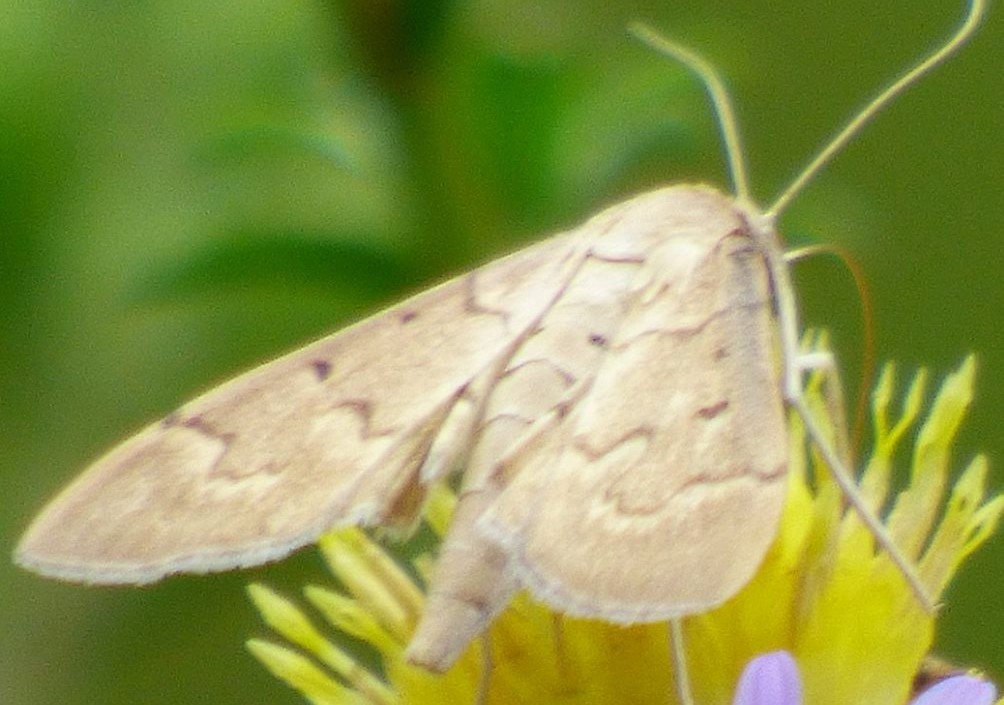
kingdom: Animalia
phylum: Arthropoda
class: Insecta
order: Lepidoptera
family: Crambidae
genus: Herpetogramma
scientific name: Herpetogramma bipunctalis
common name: Southern beet webworm
